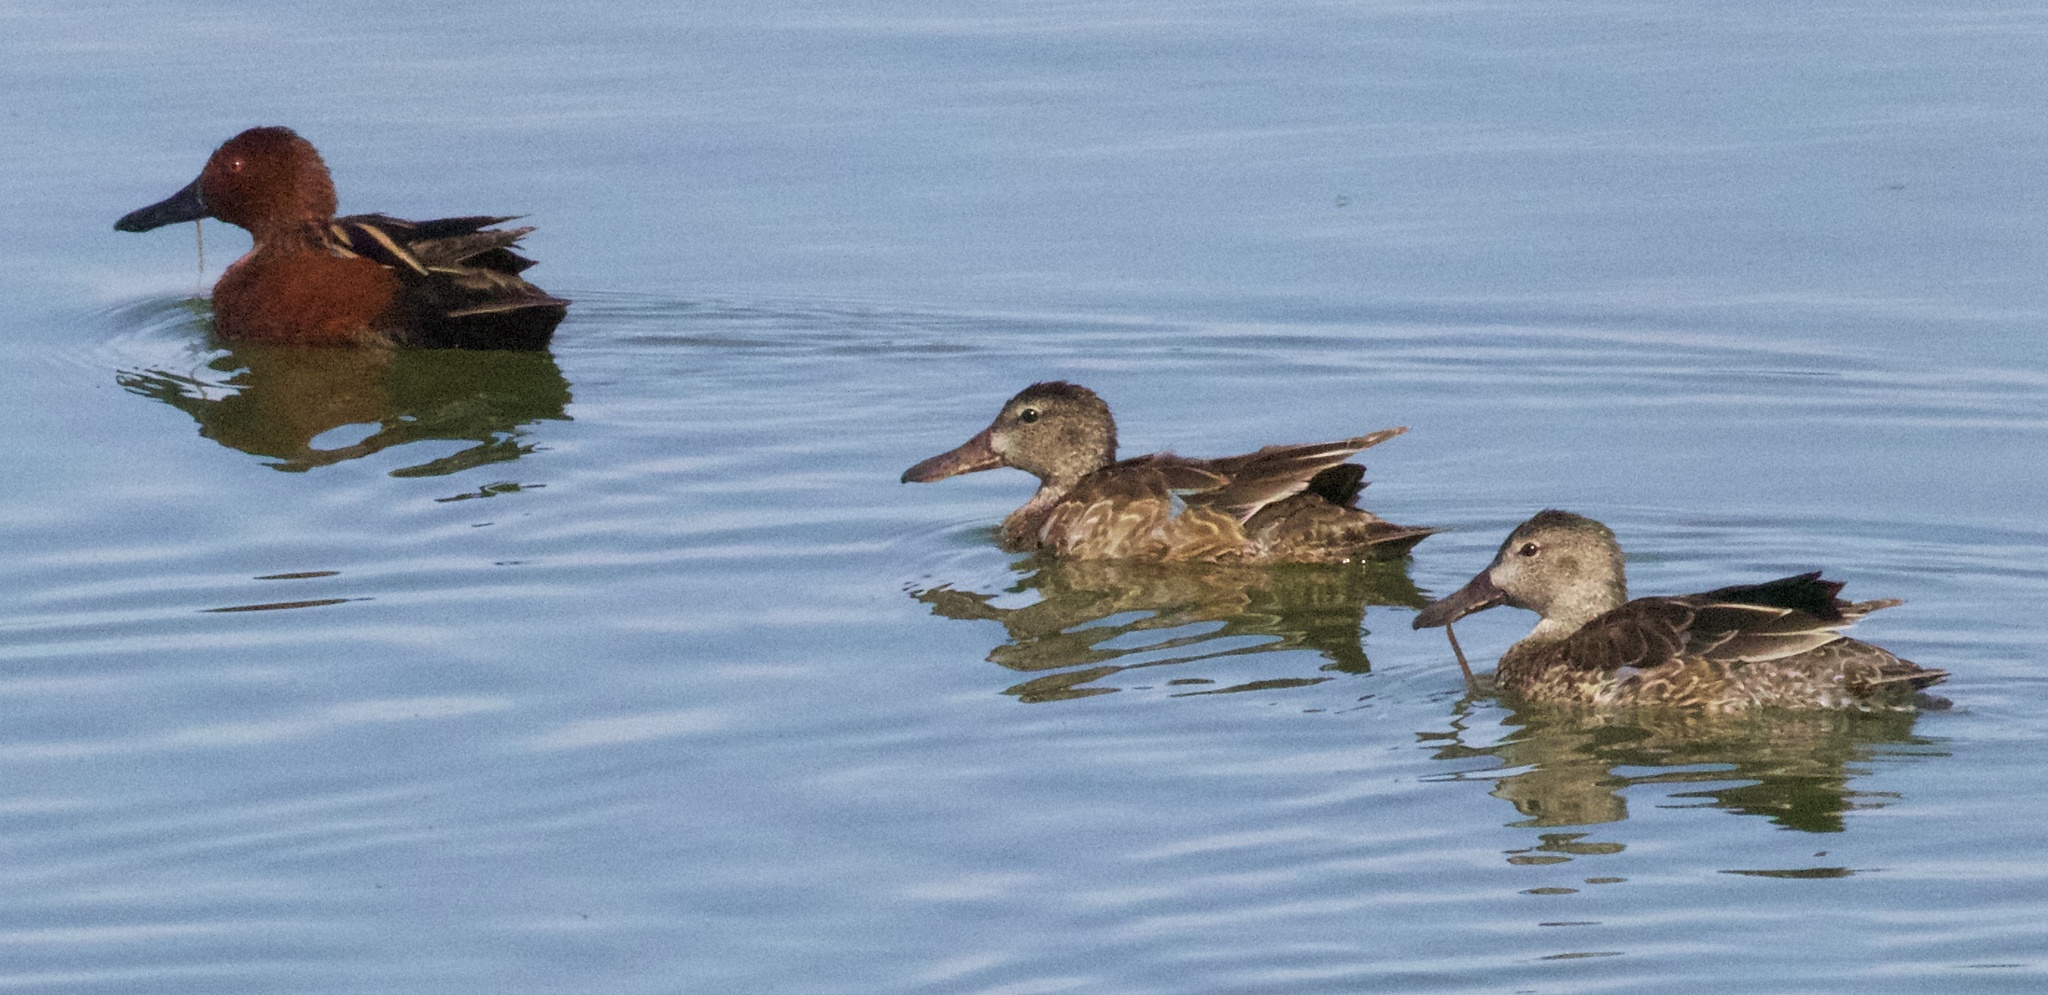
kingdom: Animalia
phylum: Chordata
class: Aves
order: Anseriformes
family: Anatidae
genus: Spatula
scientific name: Spatula cyanoptera
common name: Cinnamon teal
